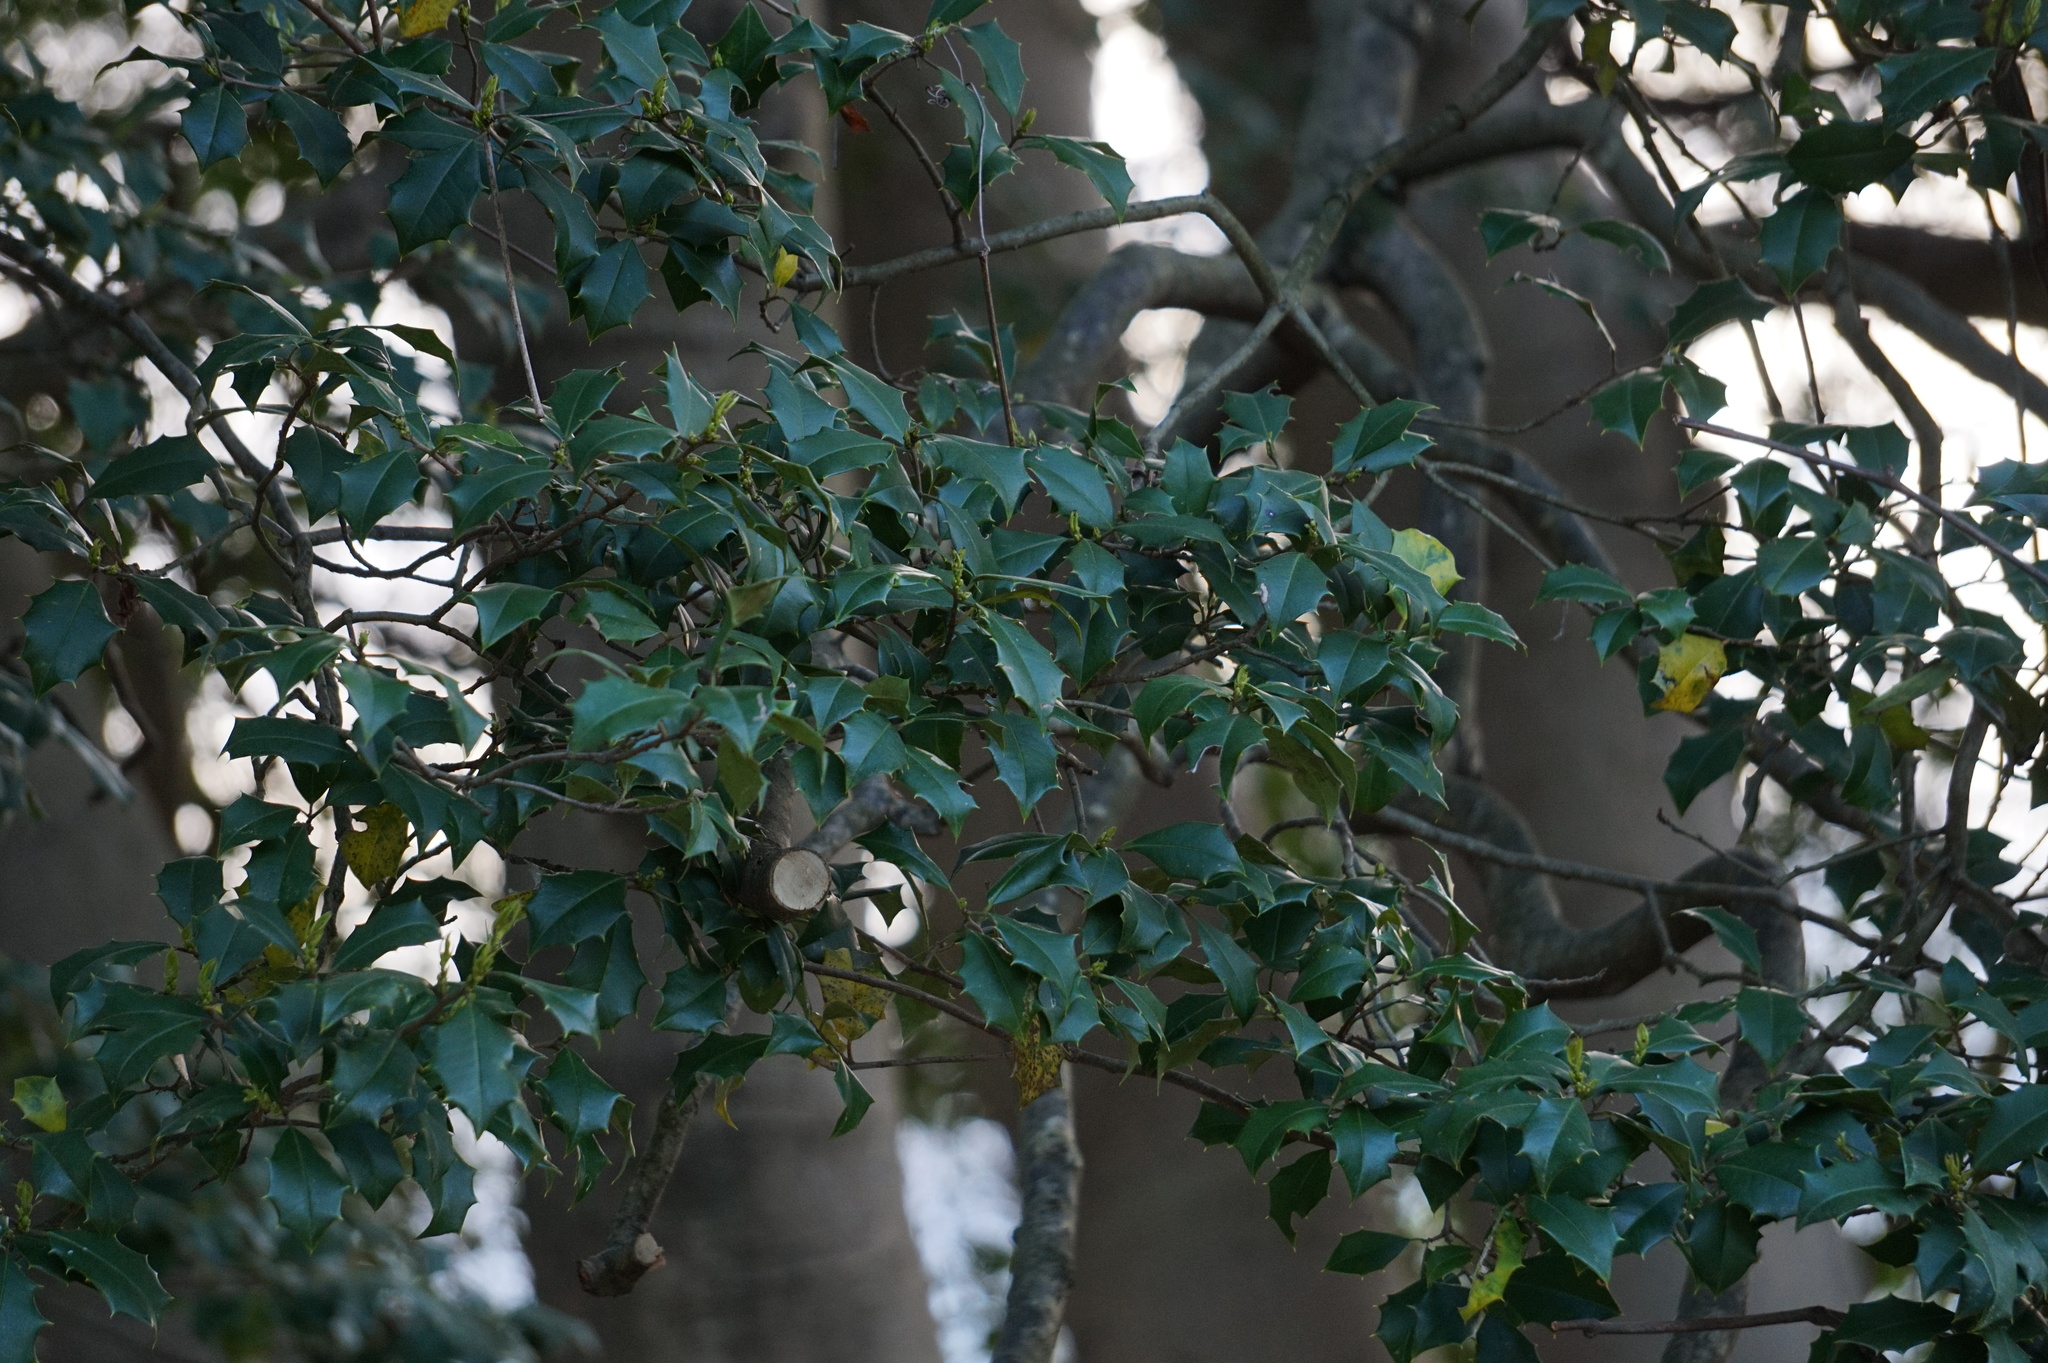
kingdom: Plantae
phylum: Tracheophyta
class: Magnoliopsida
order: Aquifoliales
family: Aquifoliaceae
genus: Ilex
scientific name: Ilex opaca
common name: American holly
